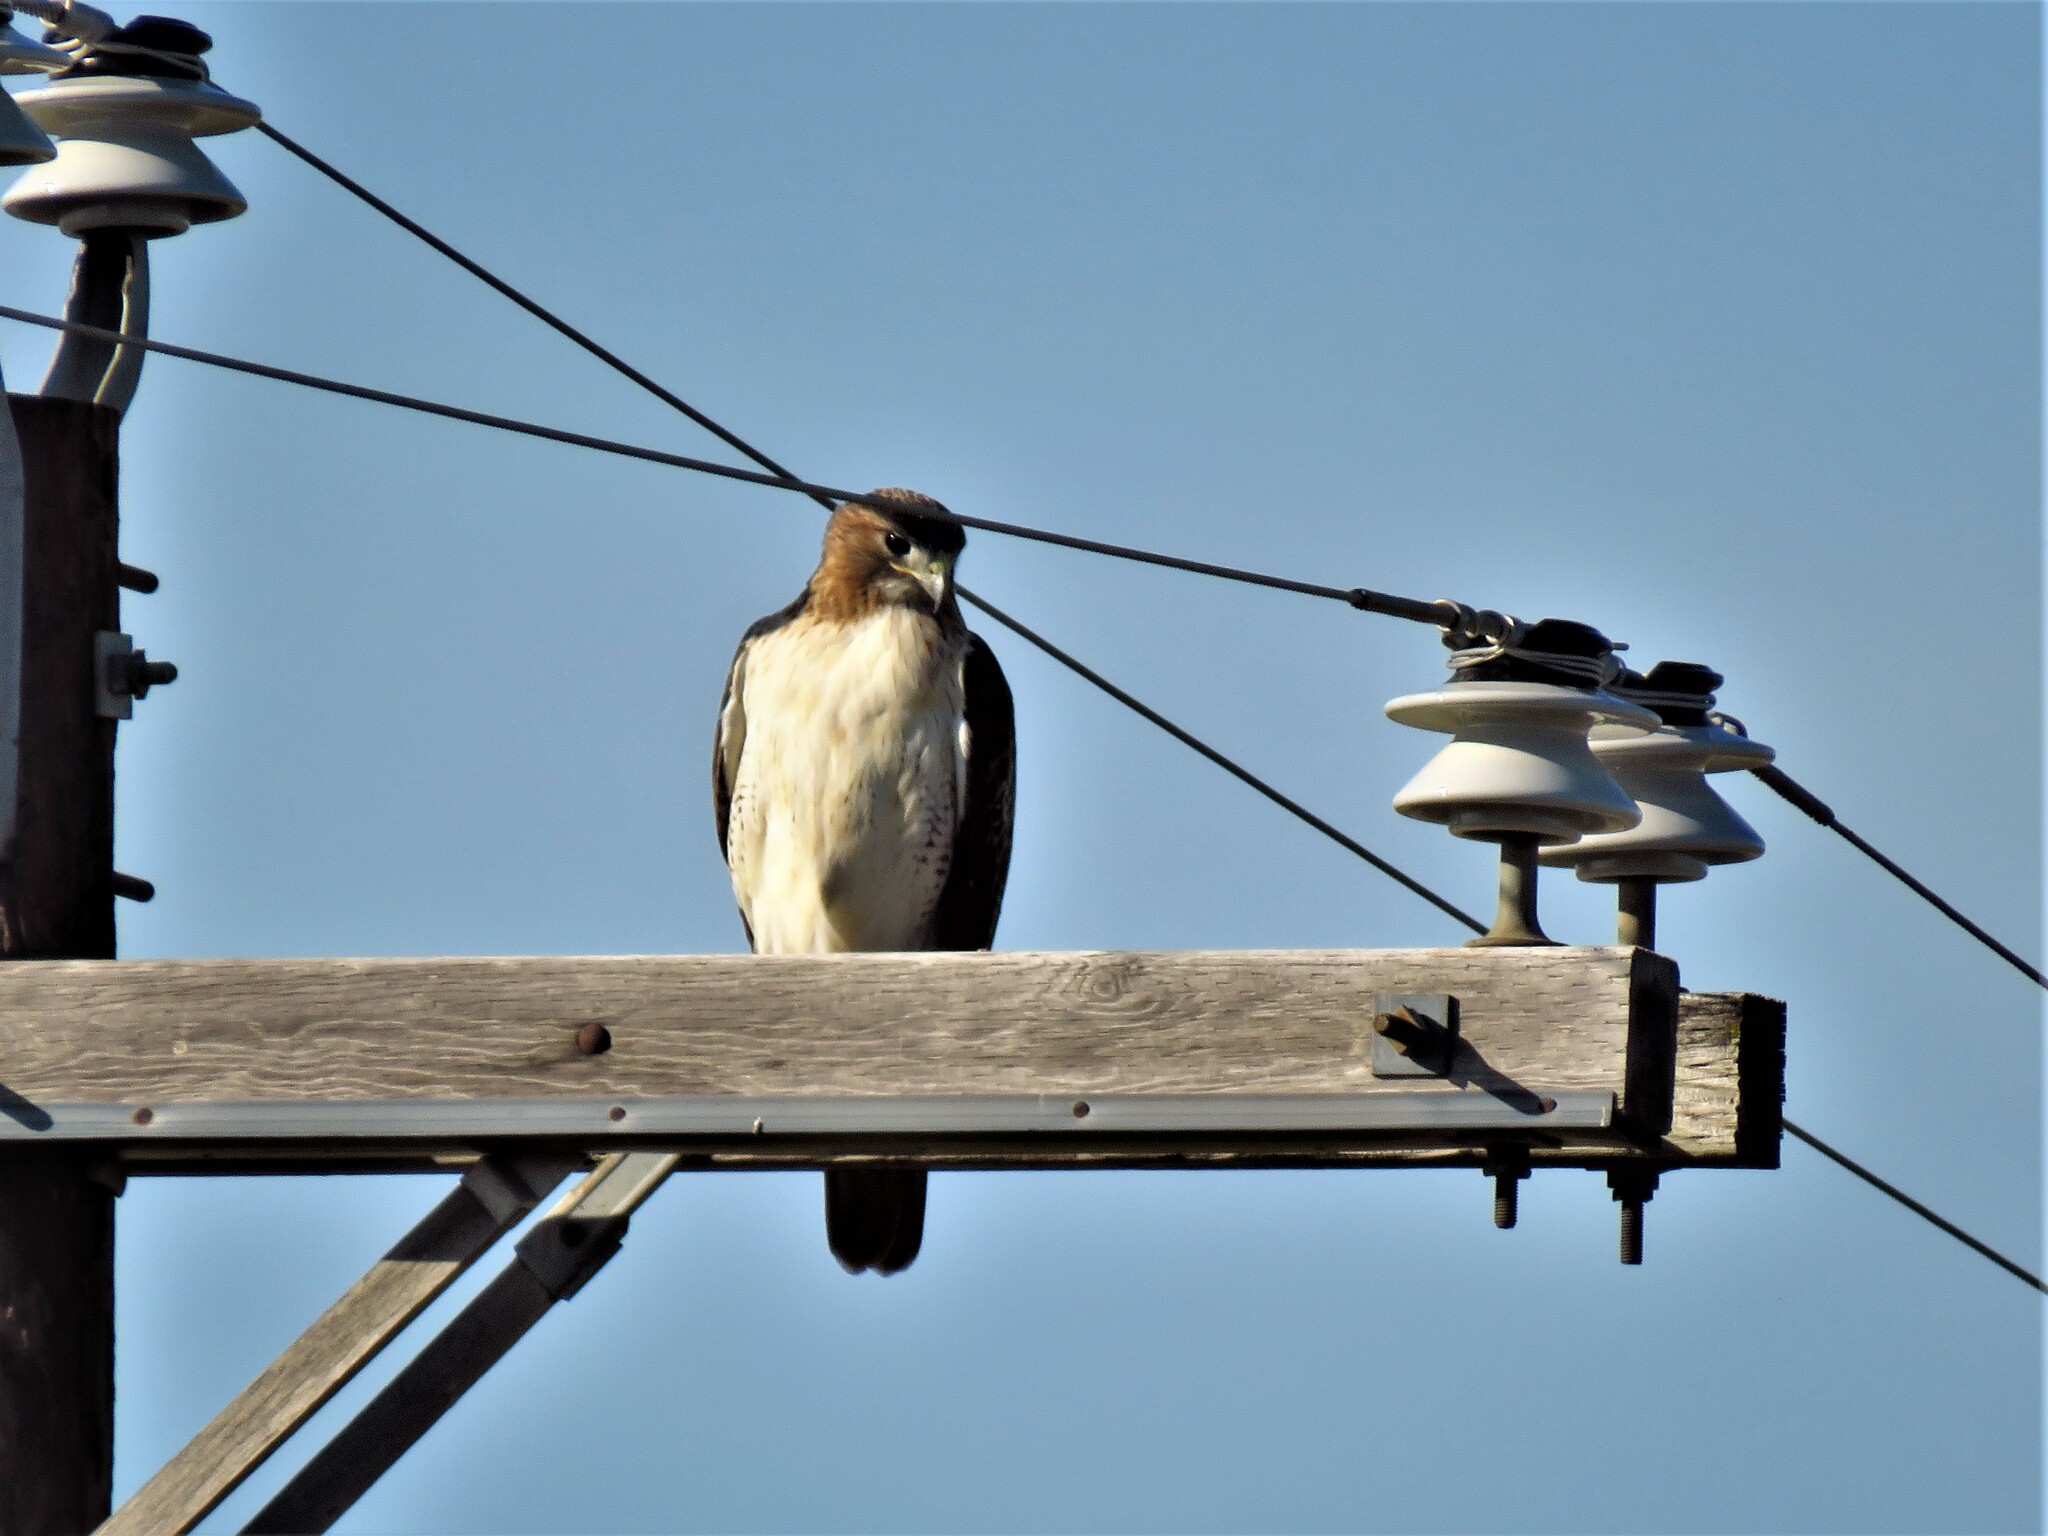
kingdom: Animalia
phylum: Chordata
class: Aves
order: Accipitriformes
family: Accipitridae
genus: Buteo
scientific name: Buteo jamaicensis
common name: Red-tailed hawk
